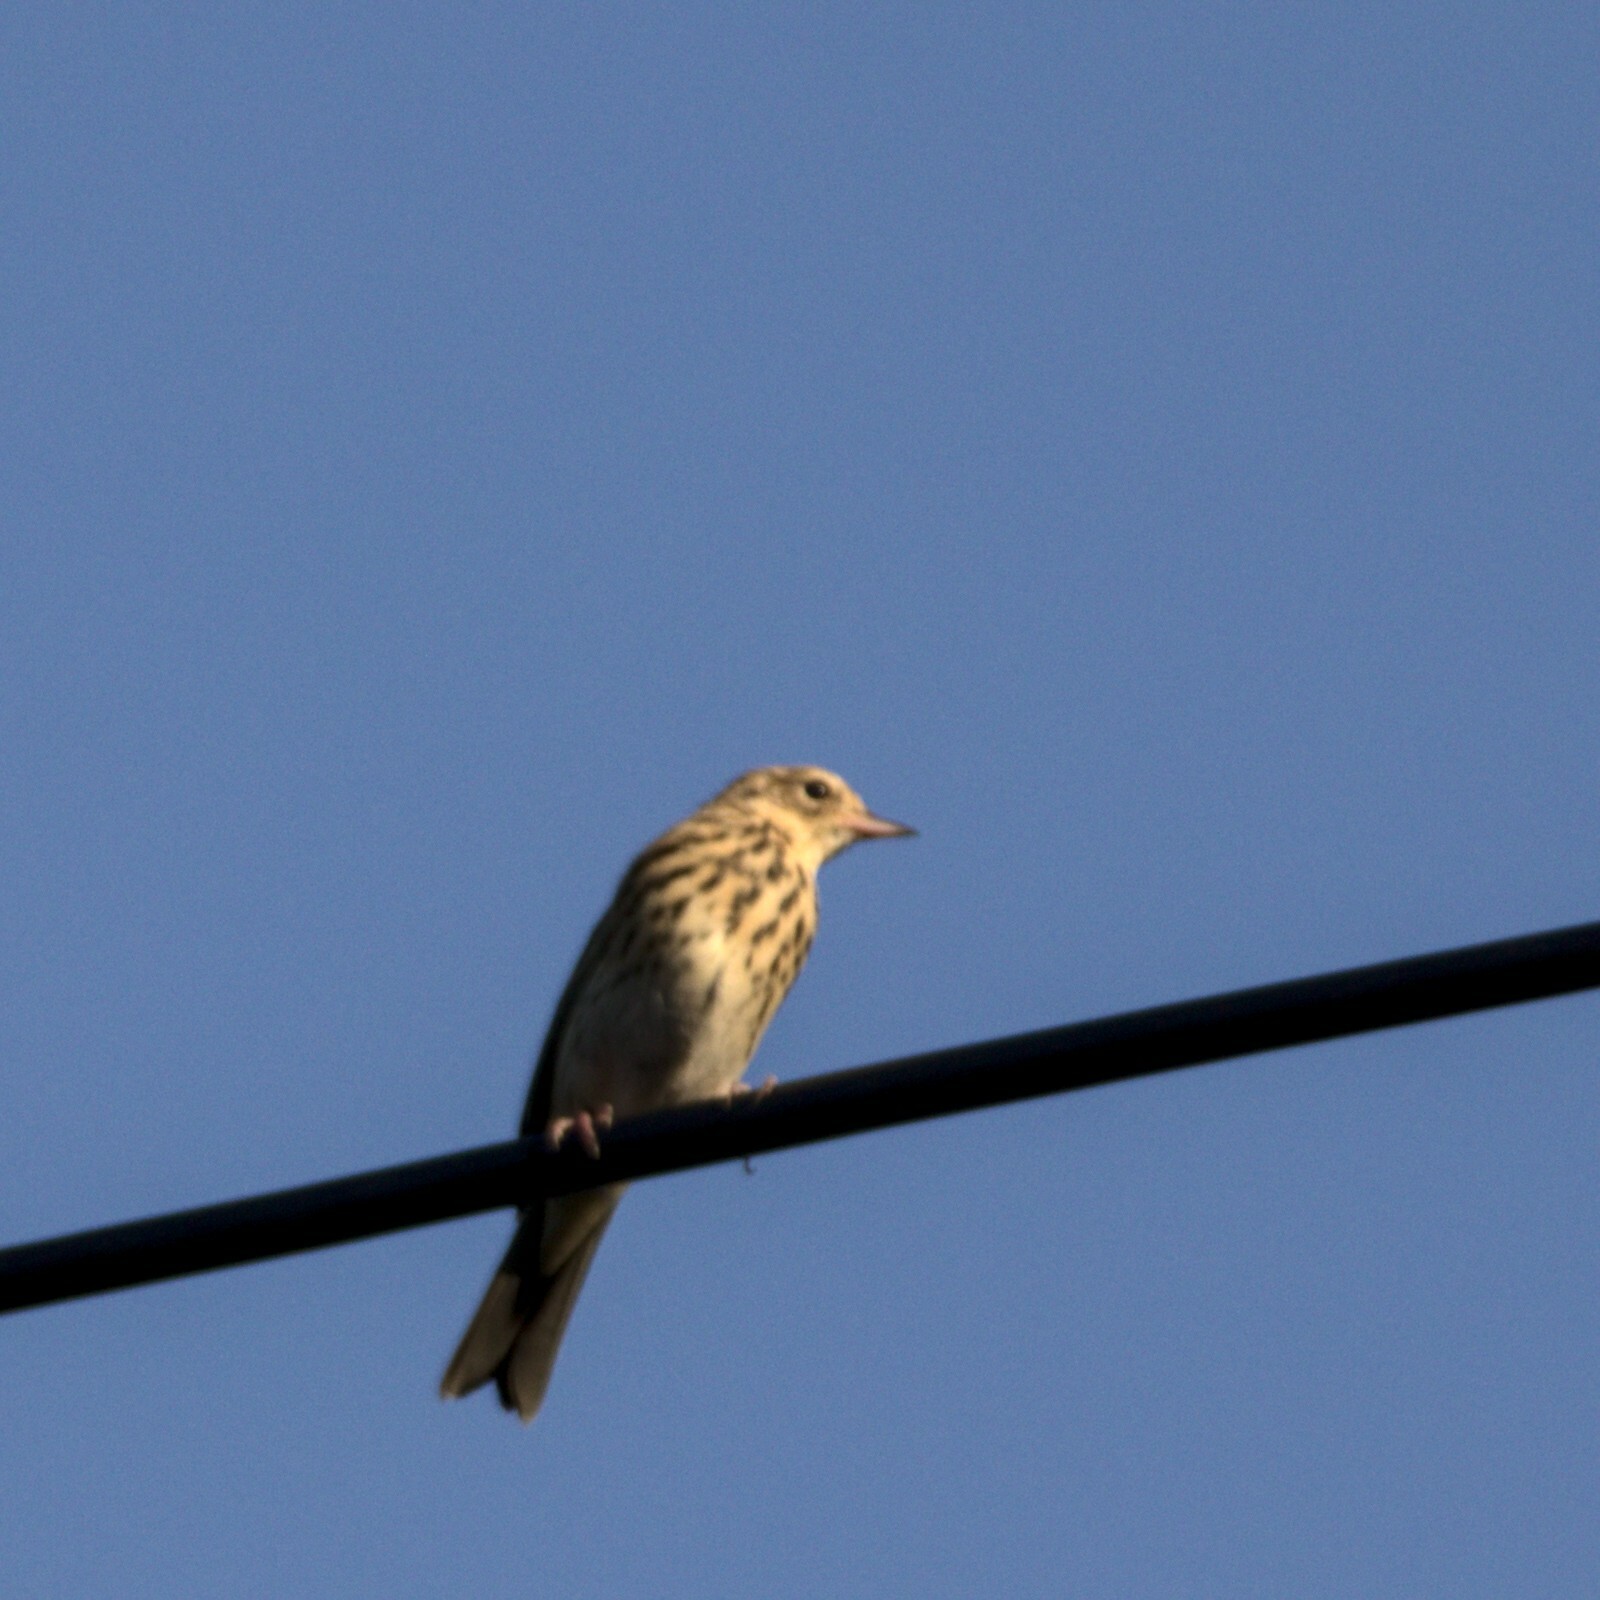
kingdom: Animalia
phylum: Chordata
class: Aves
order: Passeriformes
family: Motacillidae
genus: Anthus
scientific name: Anthus trivialis
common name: Tree pipit
